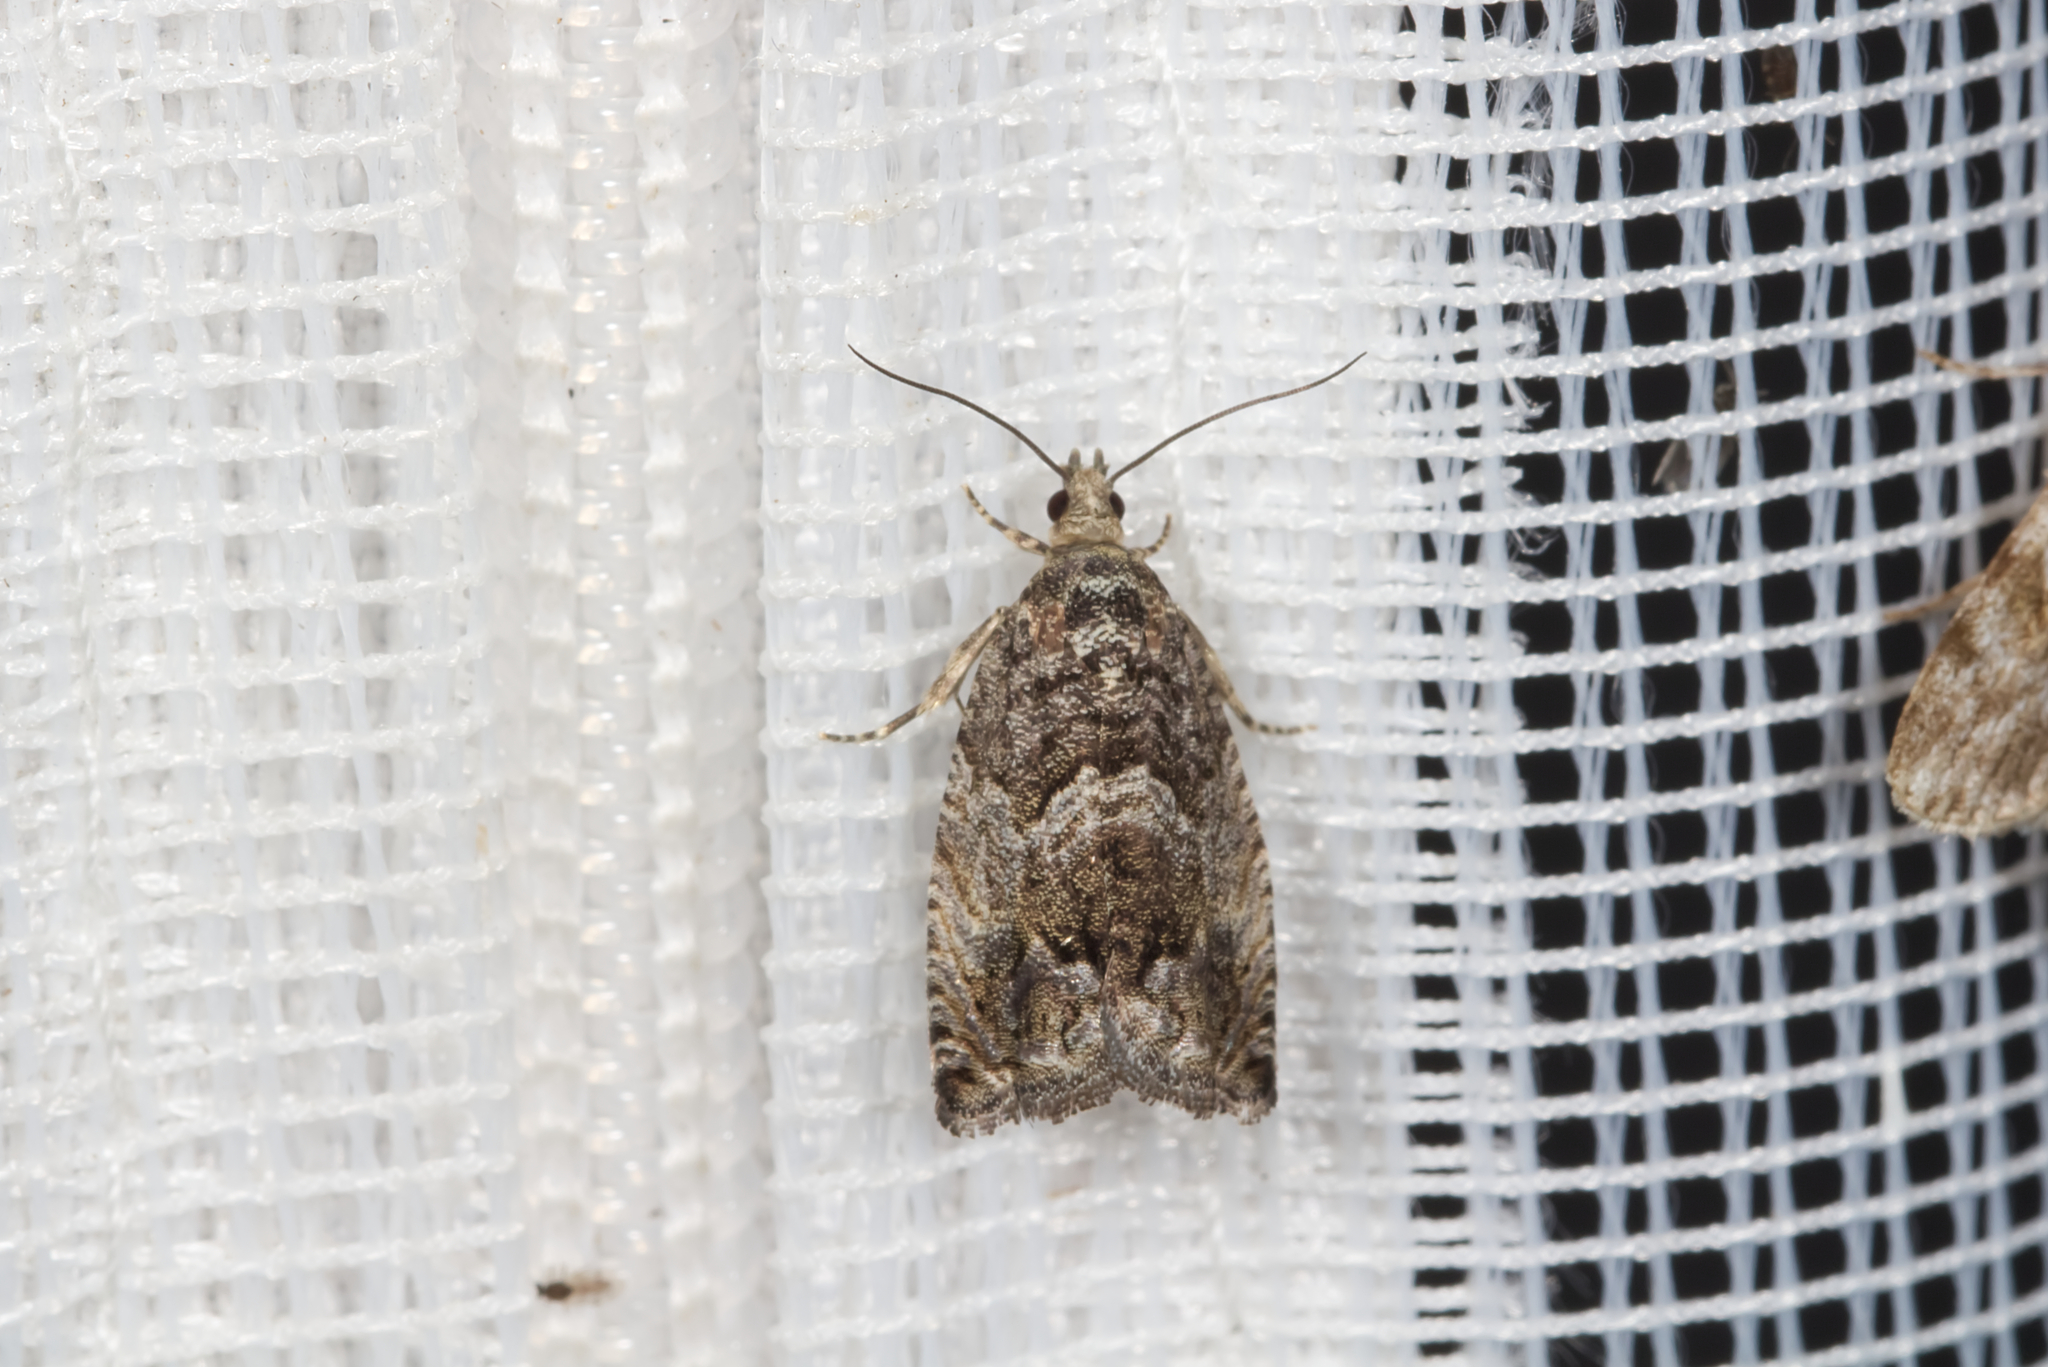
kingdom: Animalia
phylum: Arthropoda
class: Insecta
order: Lepidoptera
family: Tortricidae
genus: Cydia
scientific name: Cydia fagiglandana
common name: Large beech piercer
